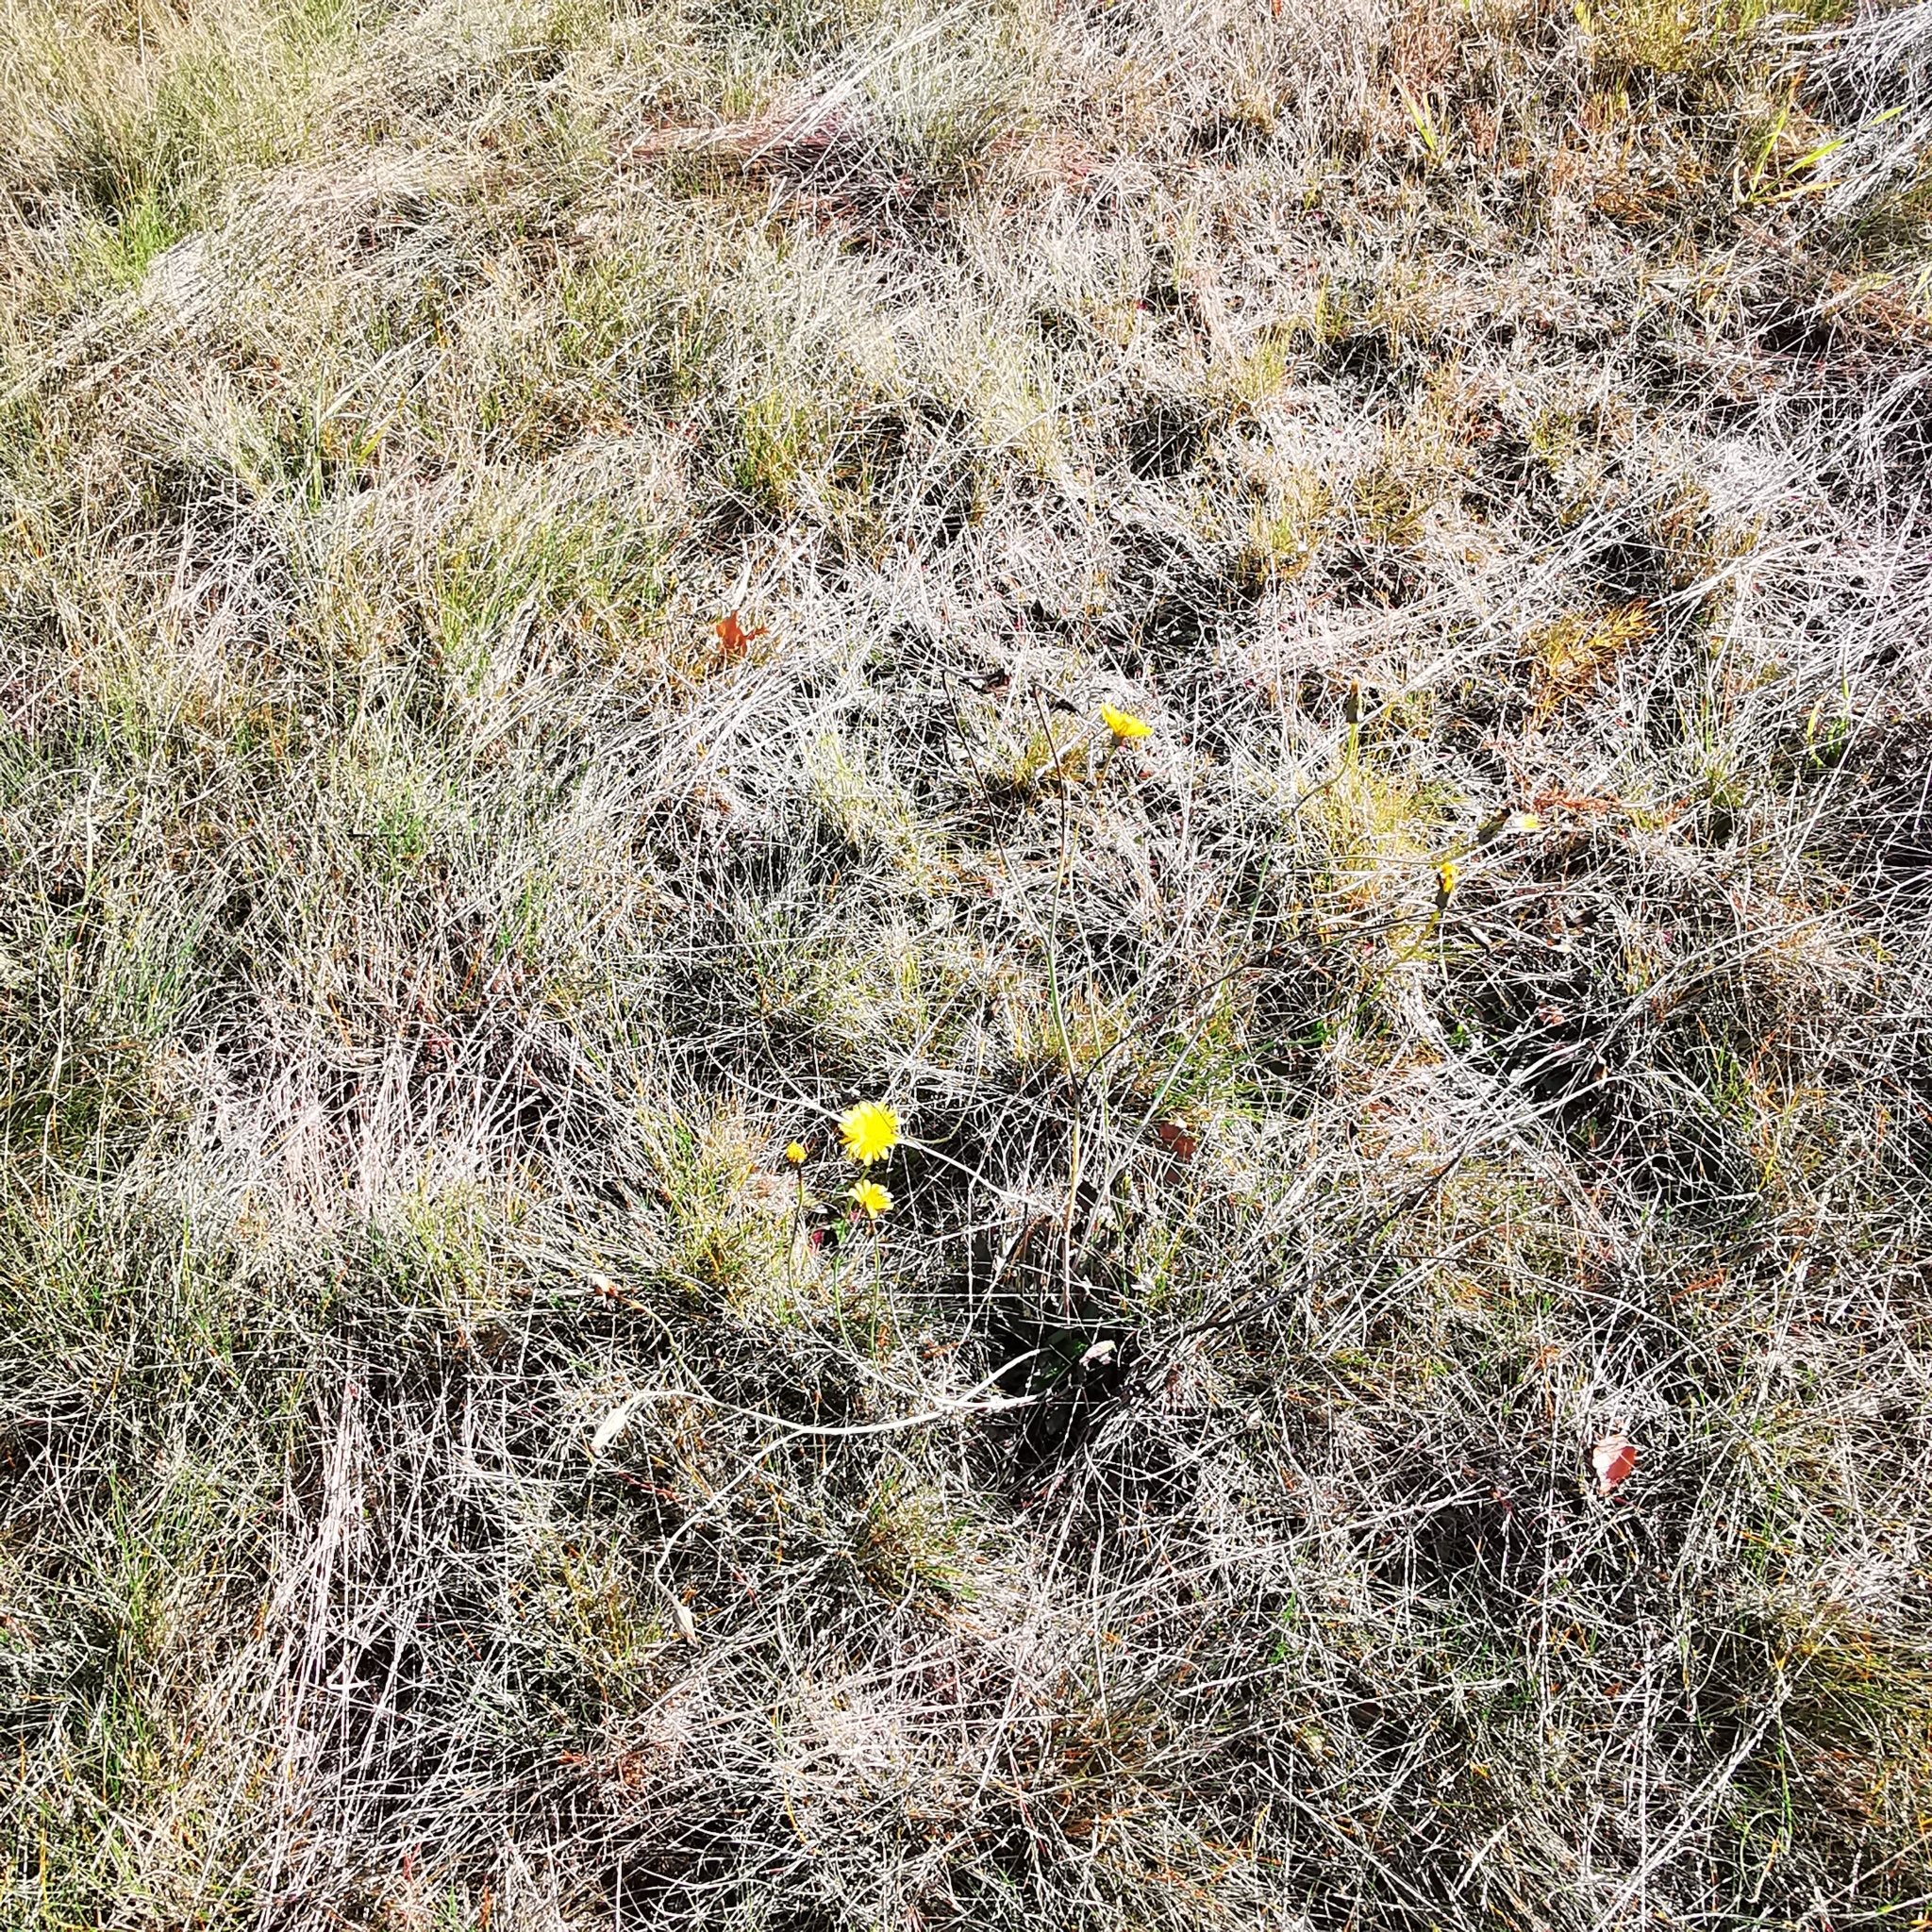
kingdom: Plantae
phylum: Tracheophyta
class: Magnoliopsida
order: Asterales
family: Asteraceae
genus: Hypochaeris
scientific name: Hypochaeris radicata
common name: Flatweed
